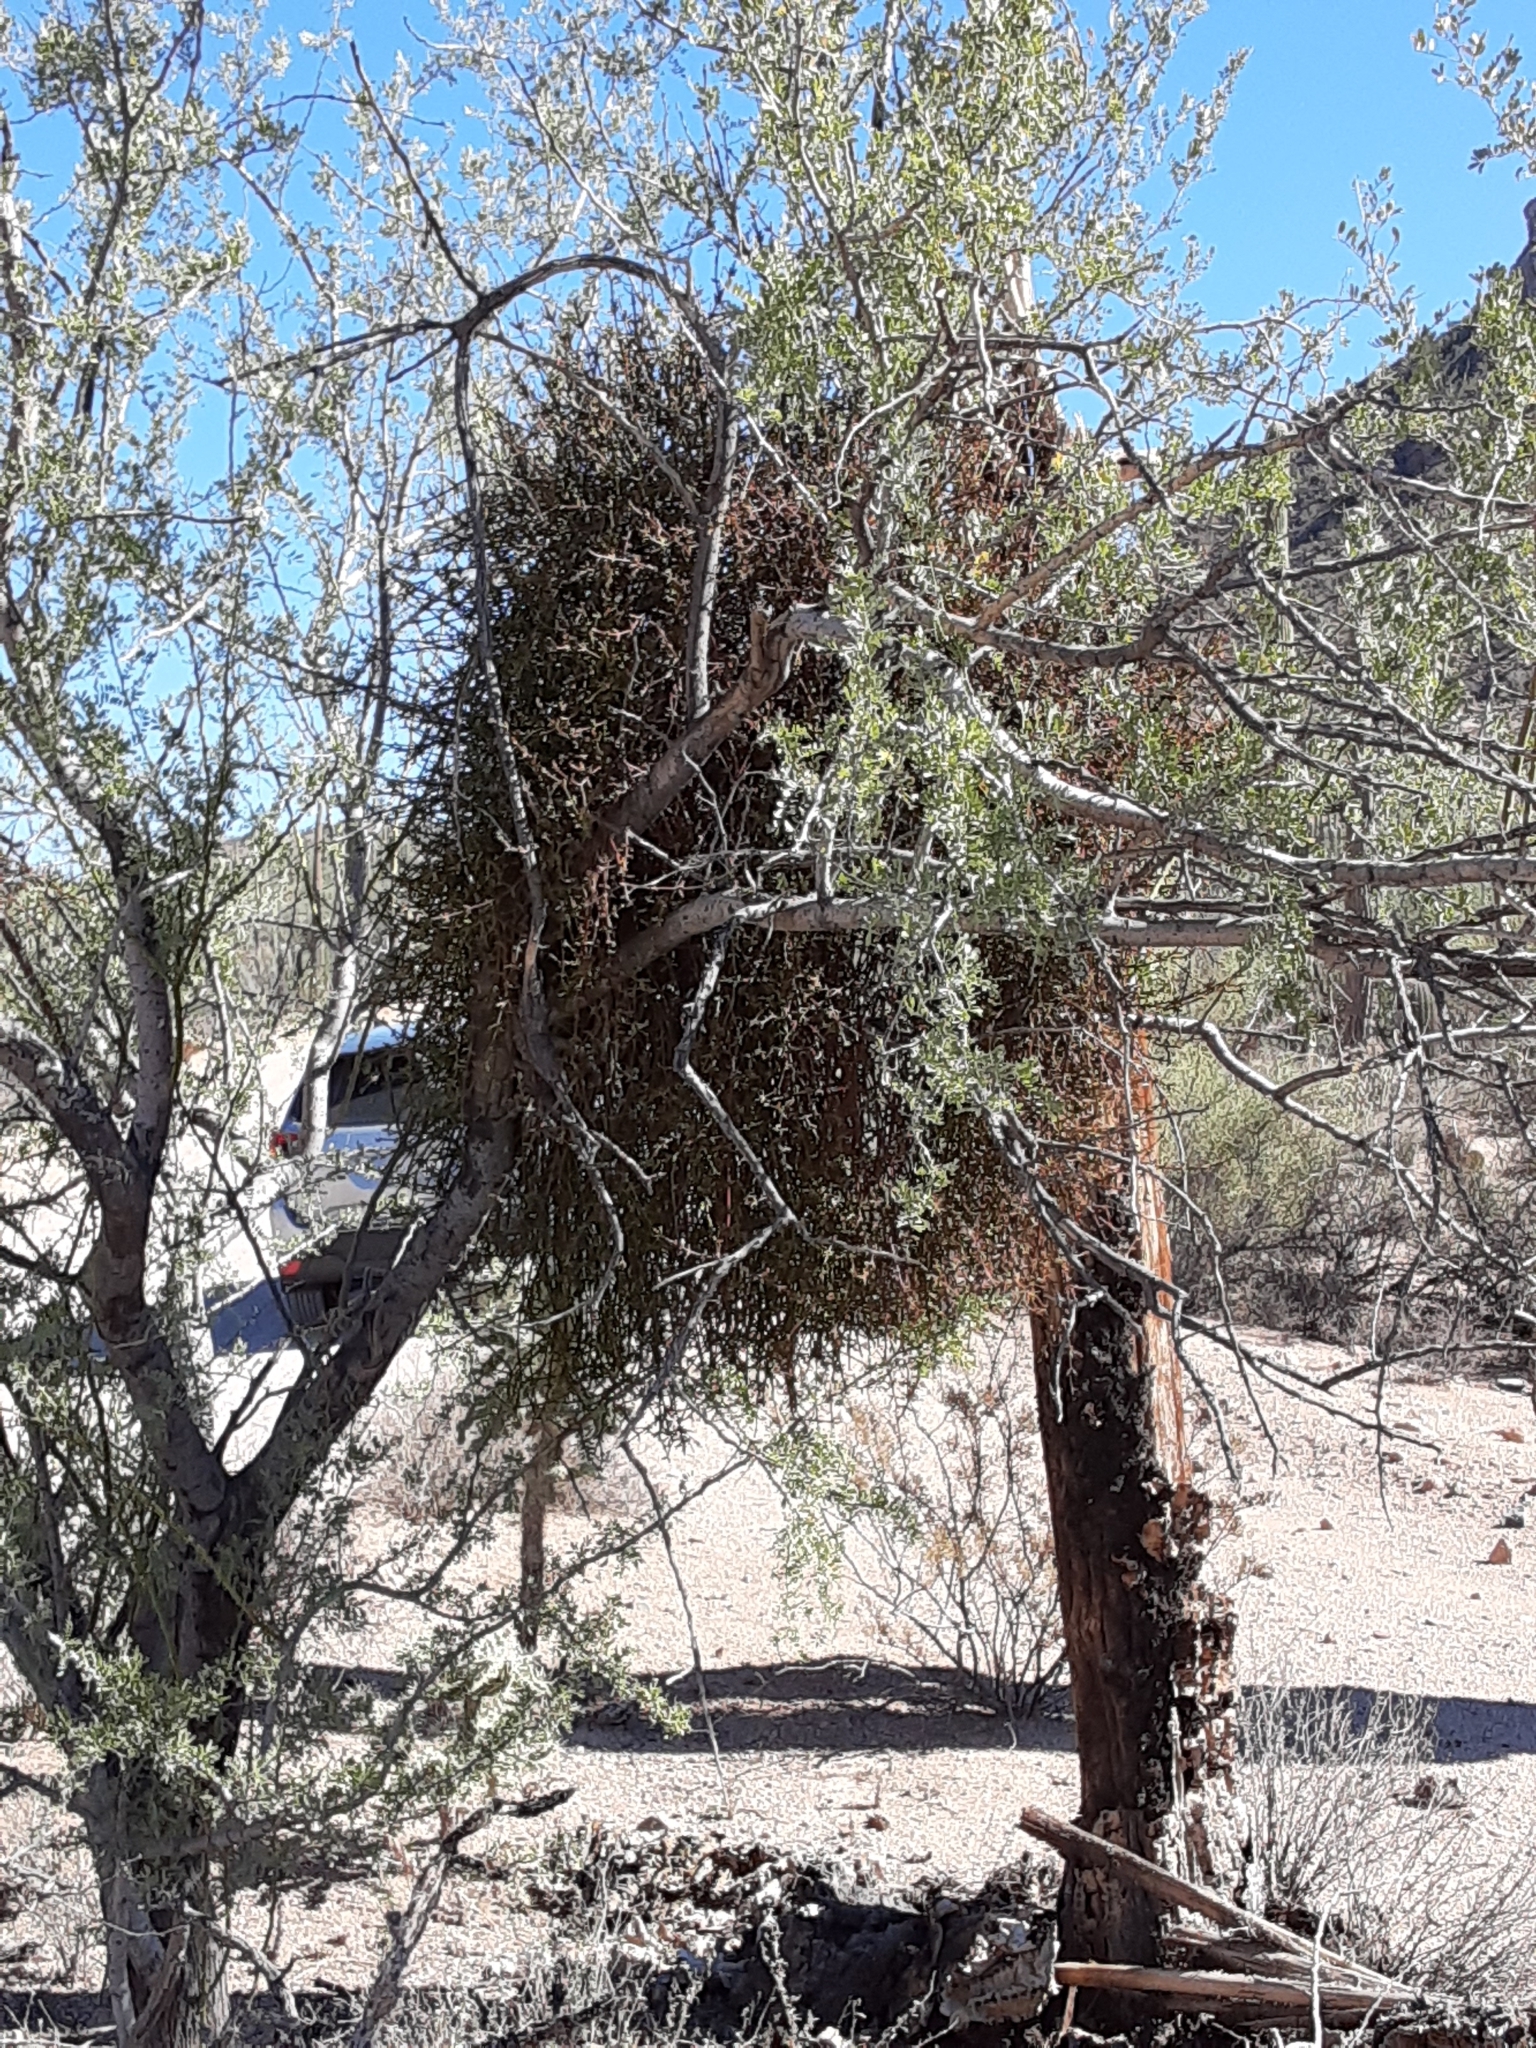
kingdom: Plantae
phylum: Tracheophyta
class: Magnoliopsida
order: Santalales
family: Viscaceae
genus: Phoradendron
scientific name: Phoradendron californicum
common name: Acacia mistletoe
